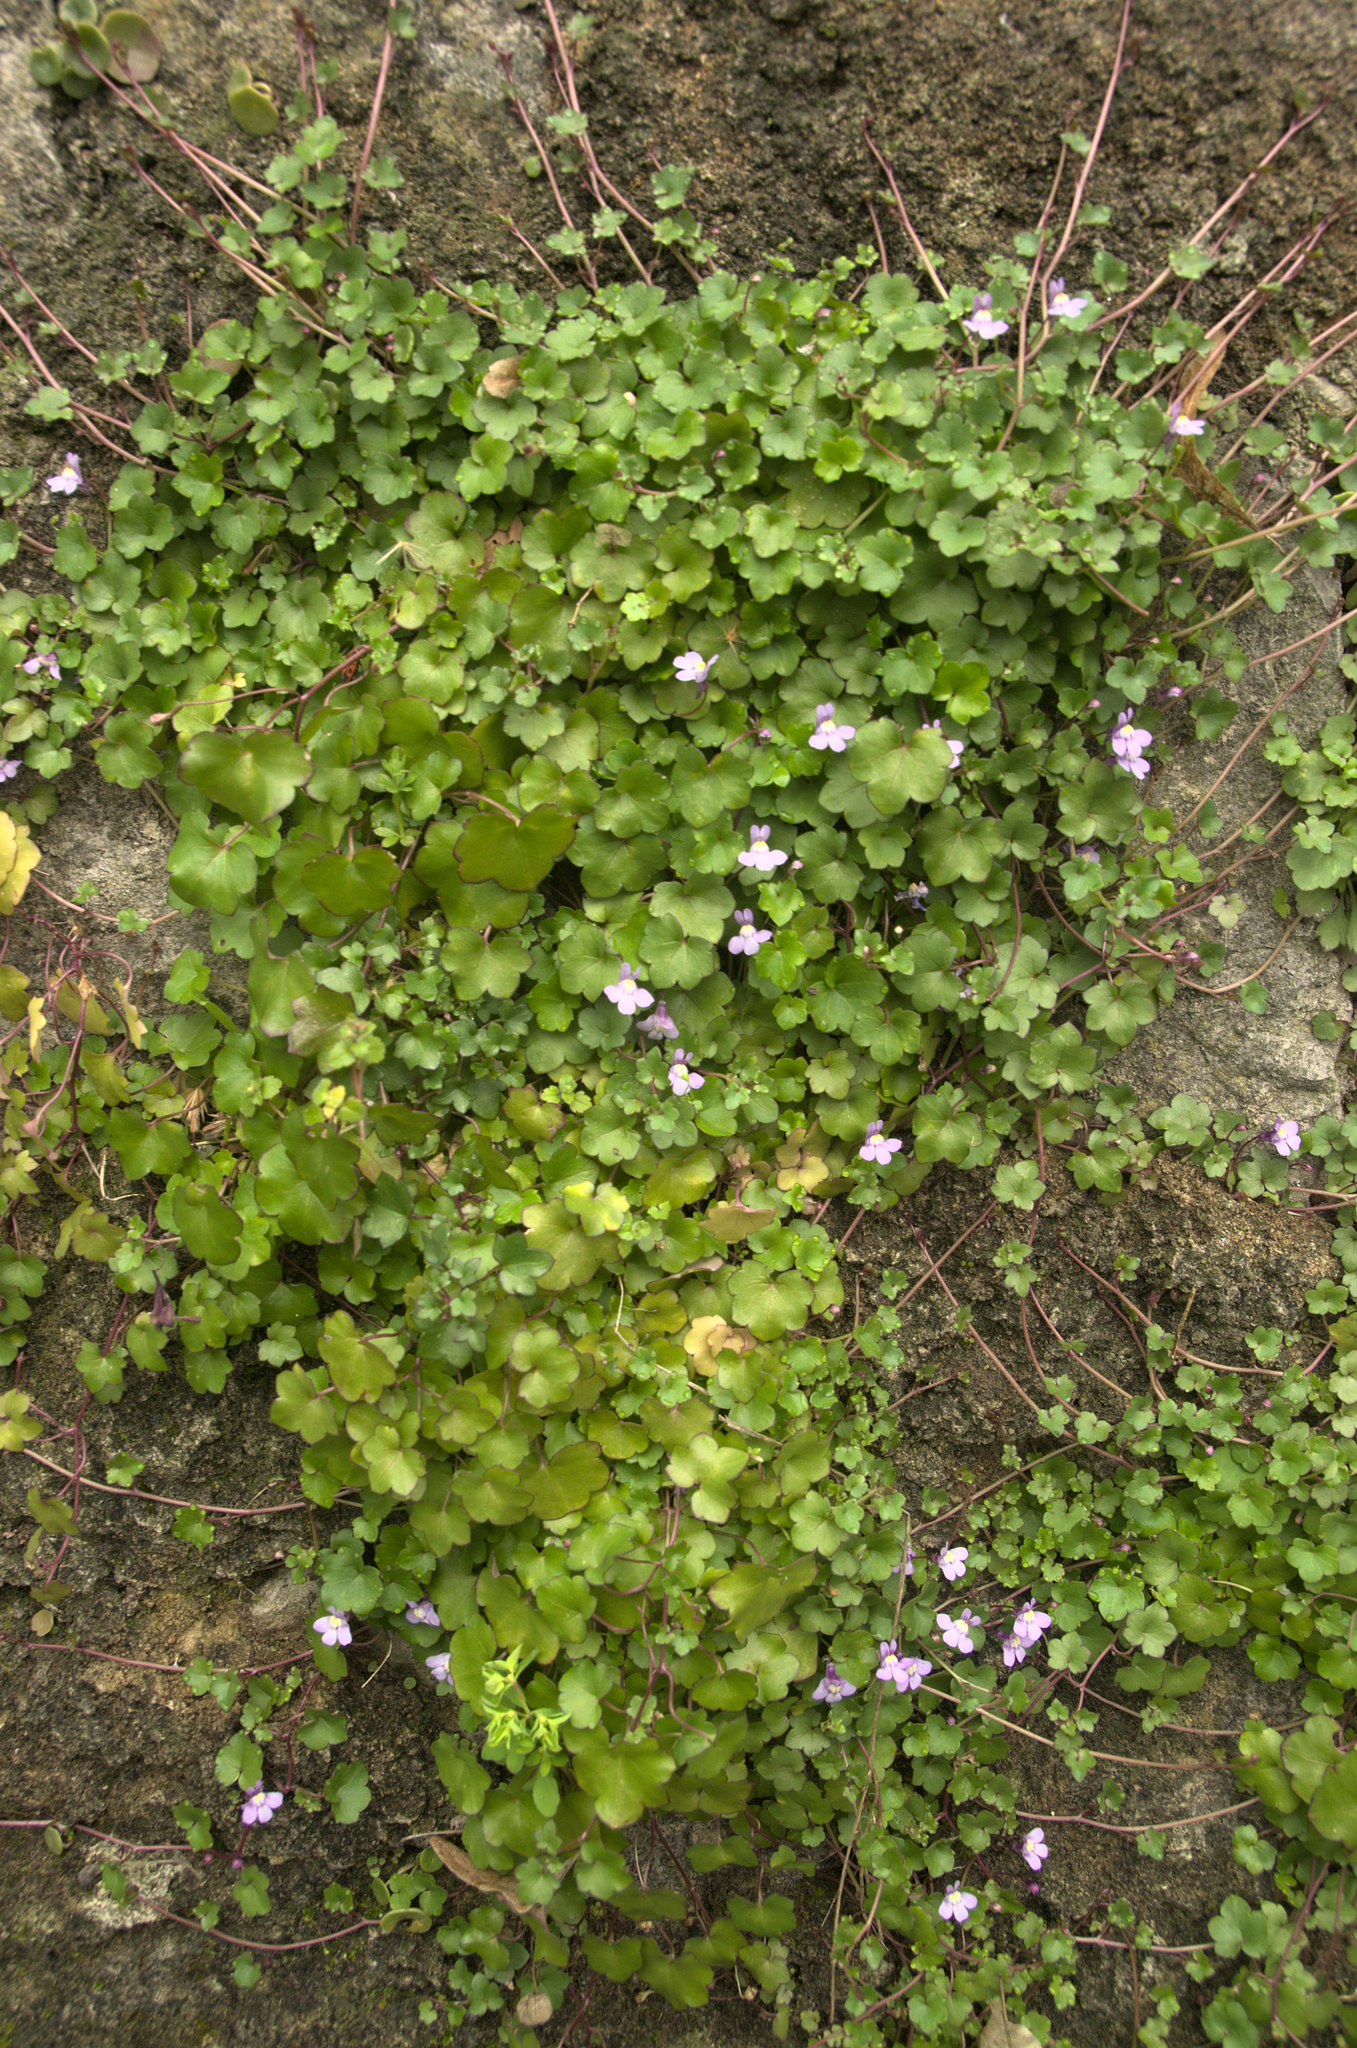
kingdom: Plantae
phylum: Tracheophyta
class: Magnoliopsida
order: Lamiales
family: Plantaginaceae
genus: Cymbalaria
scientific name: Cymbalaria muralis
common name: Ivy-leaved toadflax
